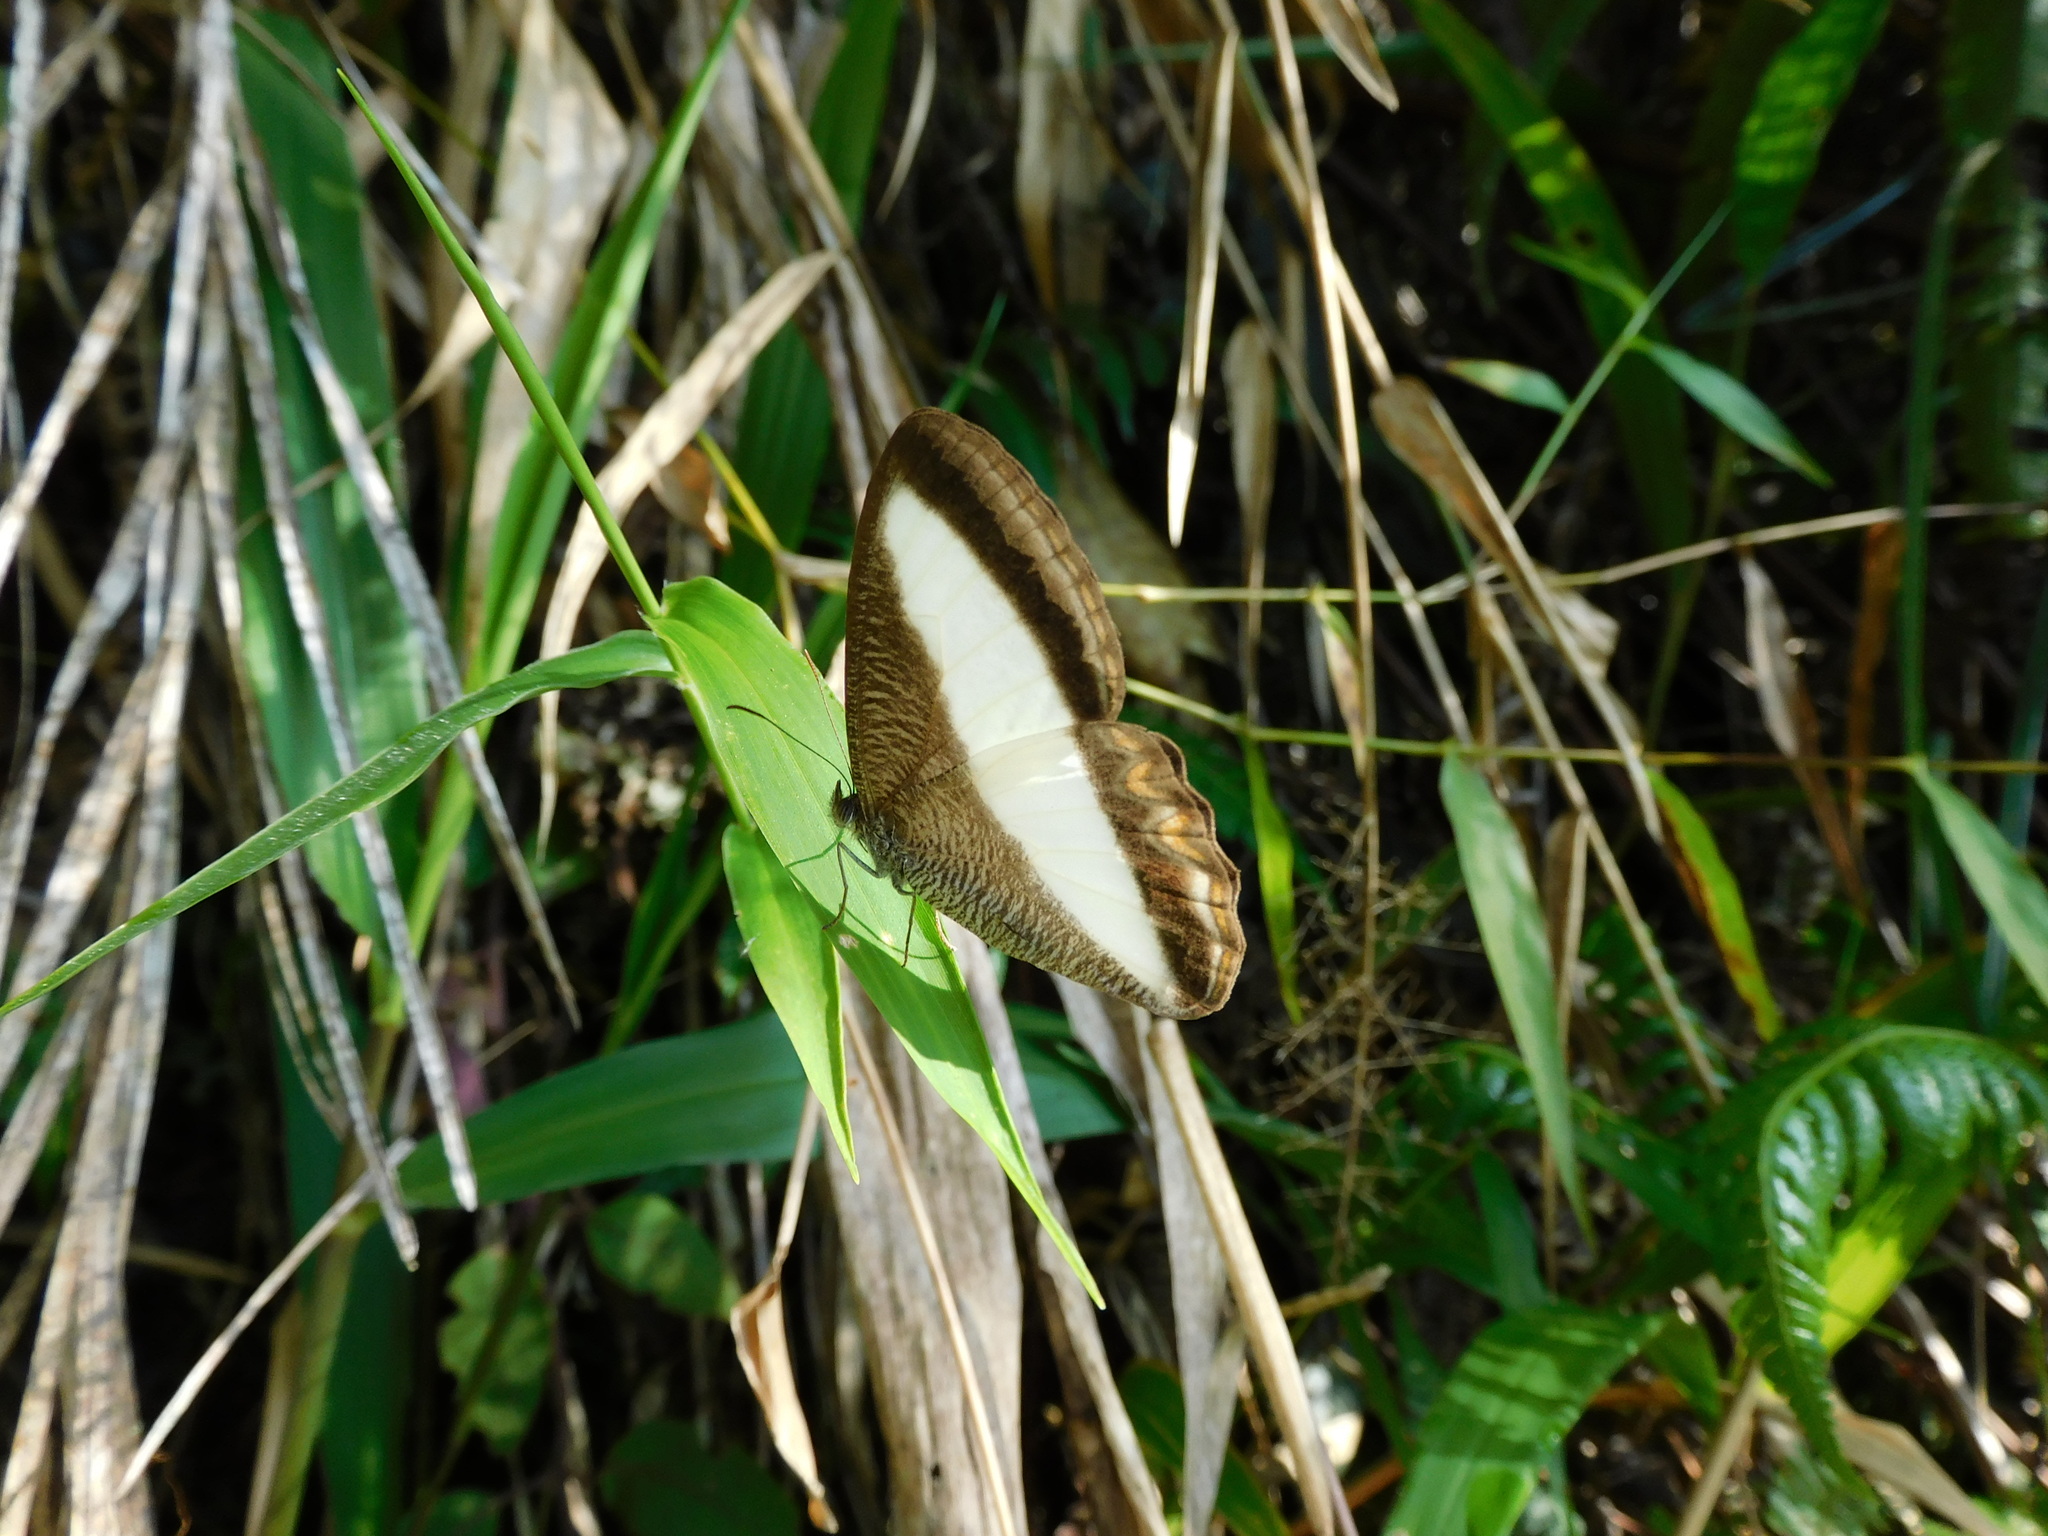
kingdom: Animalia
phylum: Arthropoda
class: Insecta
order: Lepidoptera
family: Nymphalidae
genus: Oressinoma
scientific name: Oressinoma typhla
